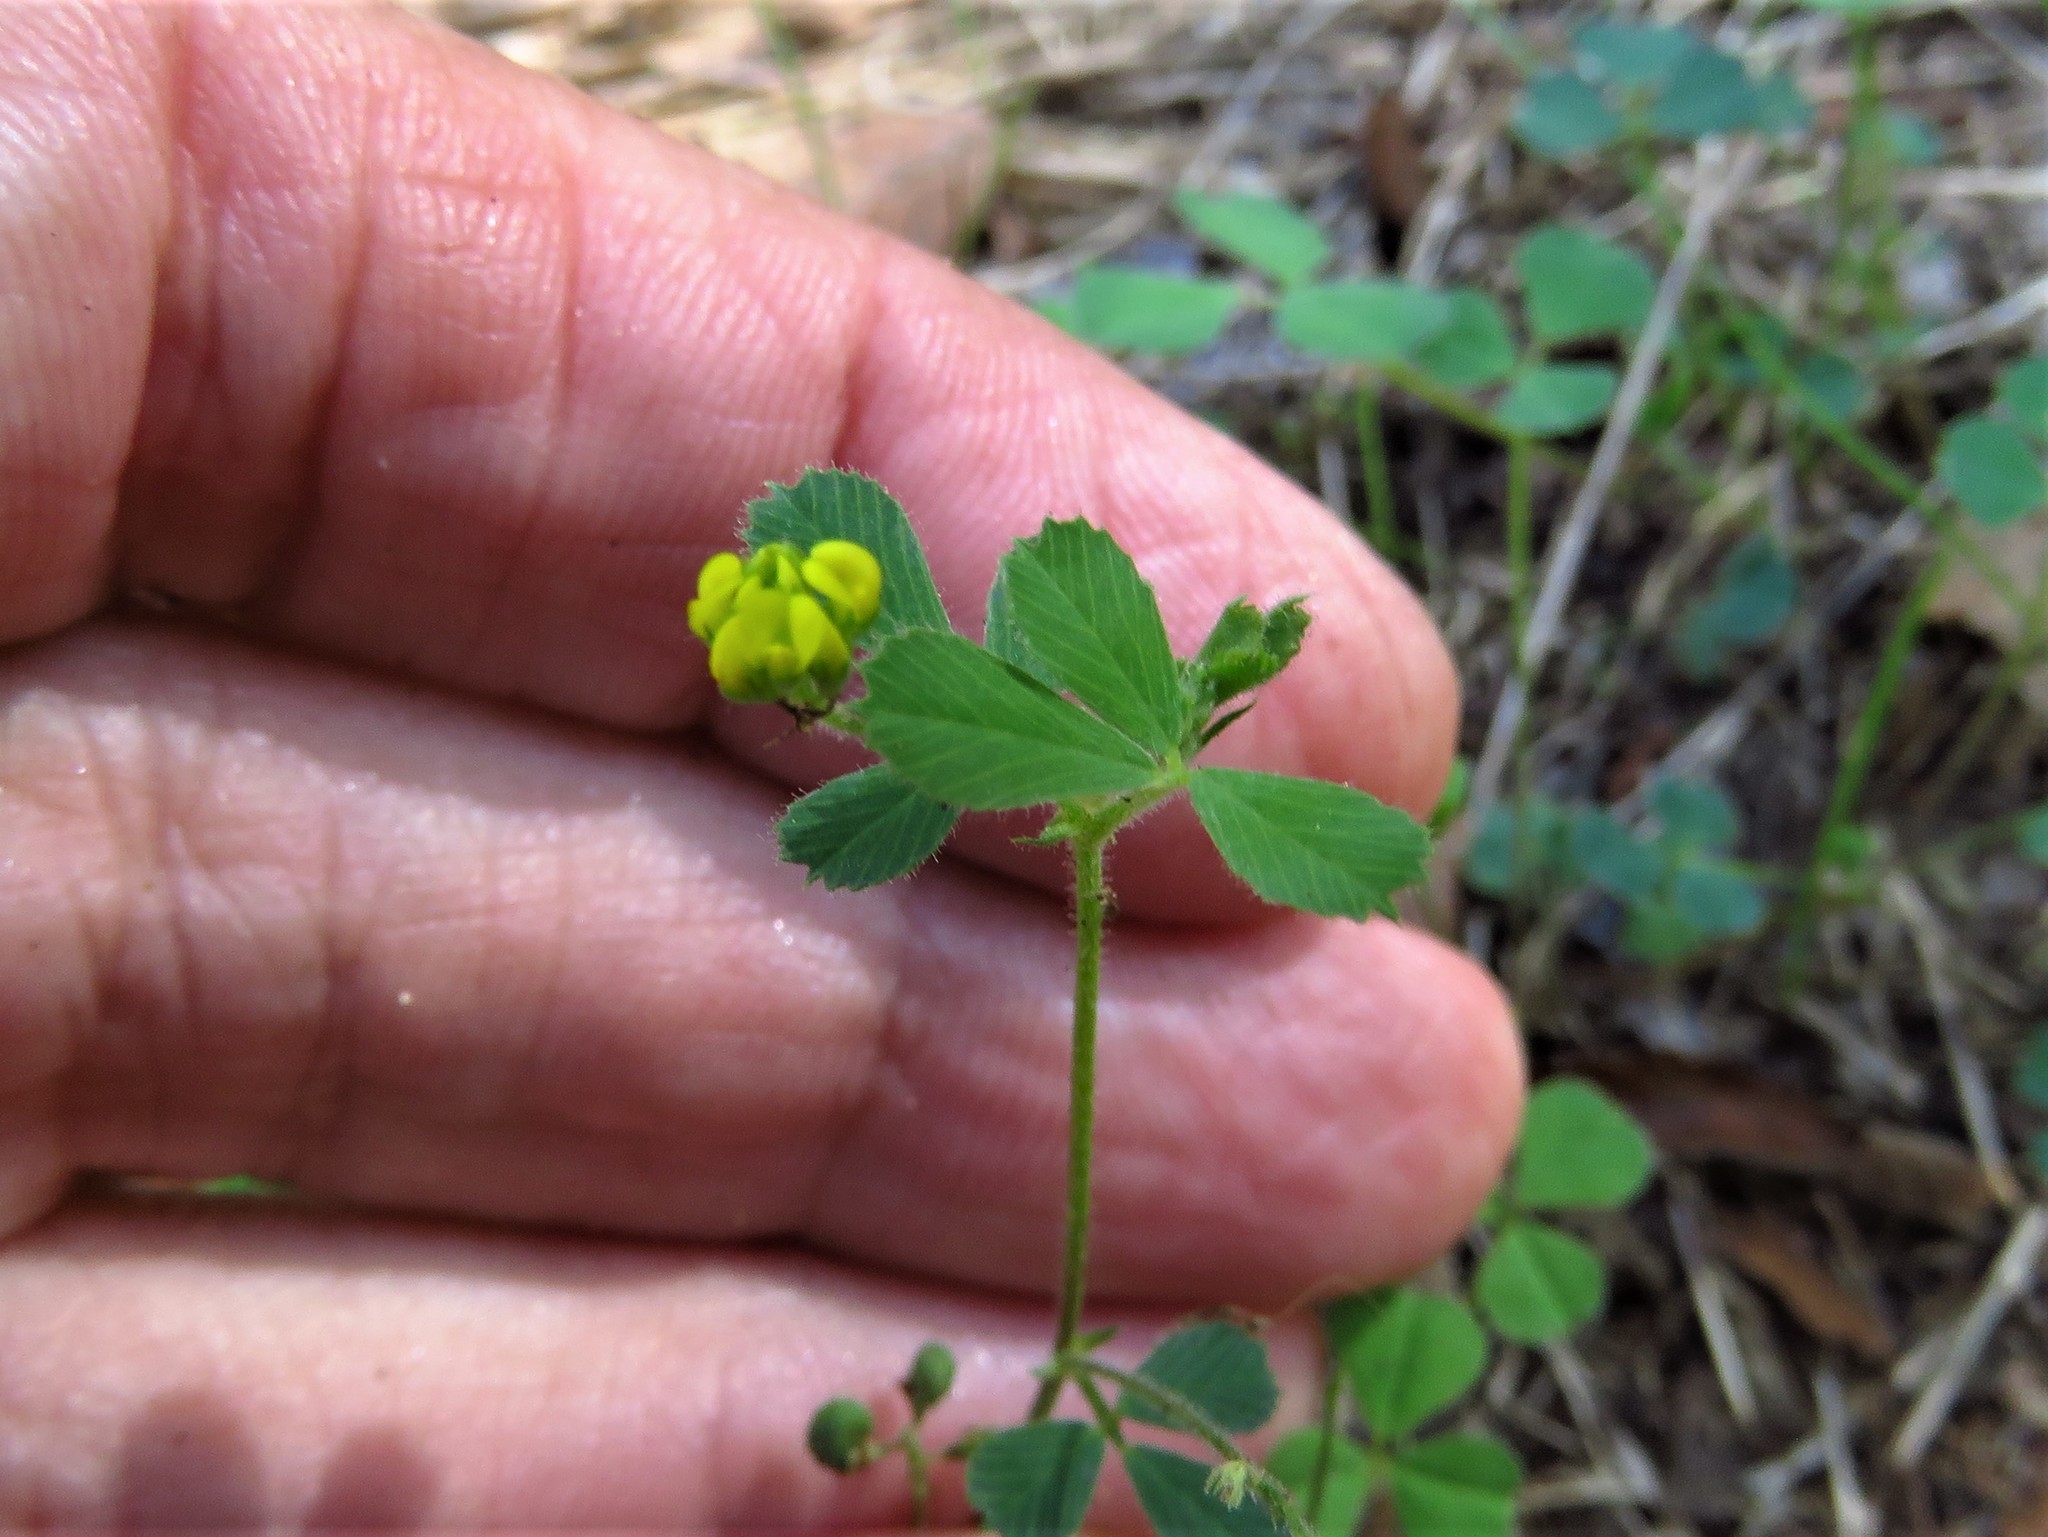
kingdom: Plantae
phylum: Tracheophyta
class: Magnoliopsida
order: Fabales
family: Fabaceae
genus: Medicago
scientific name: Medicago lupulina
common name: Black medick
